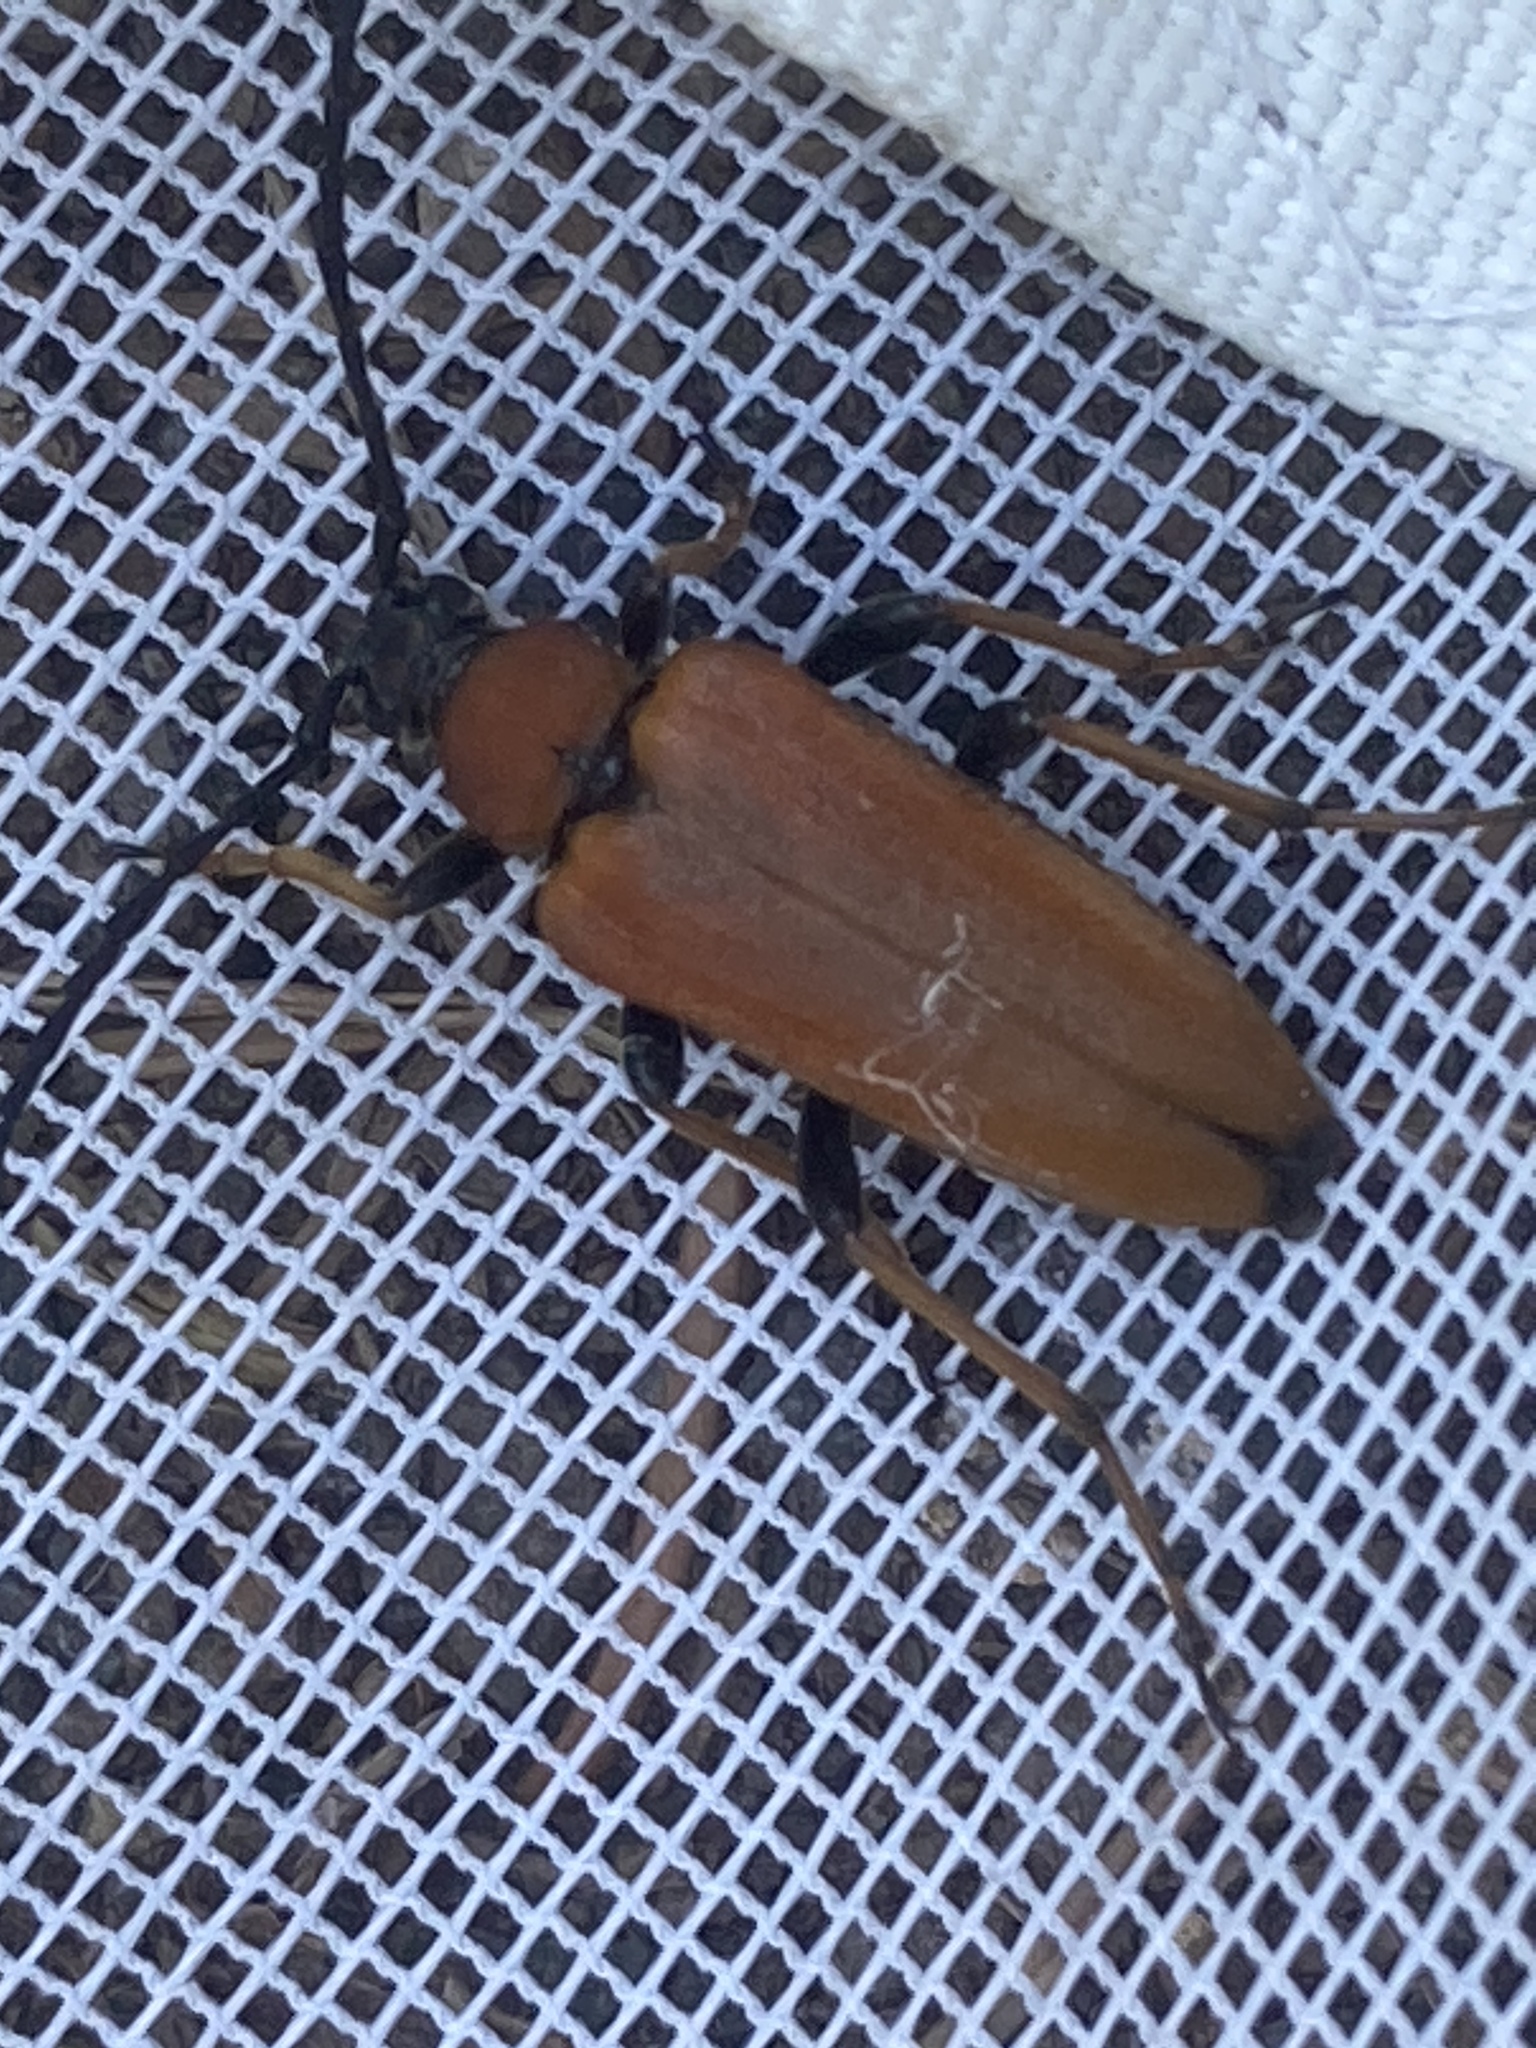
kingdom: Animalia
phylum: Arthropoda
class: Insecta
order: Coleoptera
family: Cerambycidae
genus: Stictoleptura
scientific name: Stictoleptura rubra
